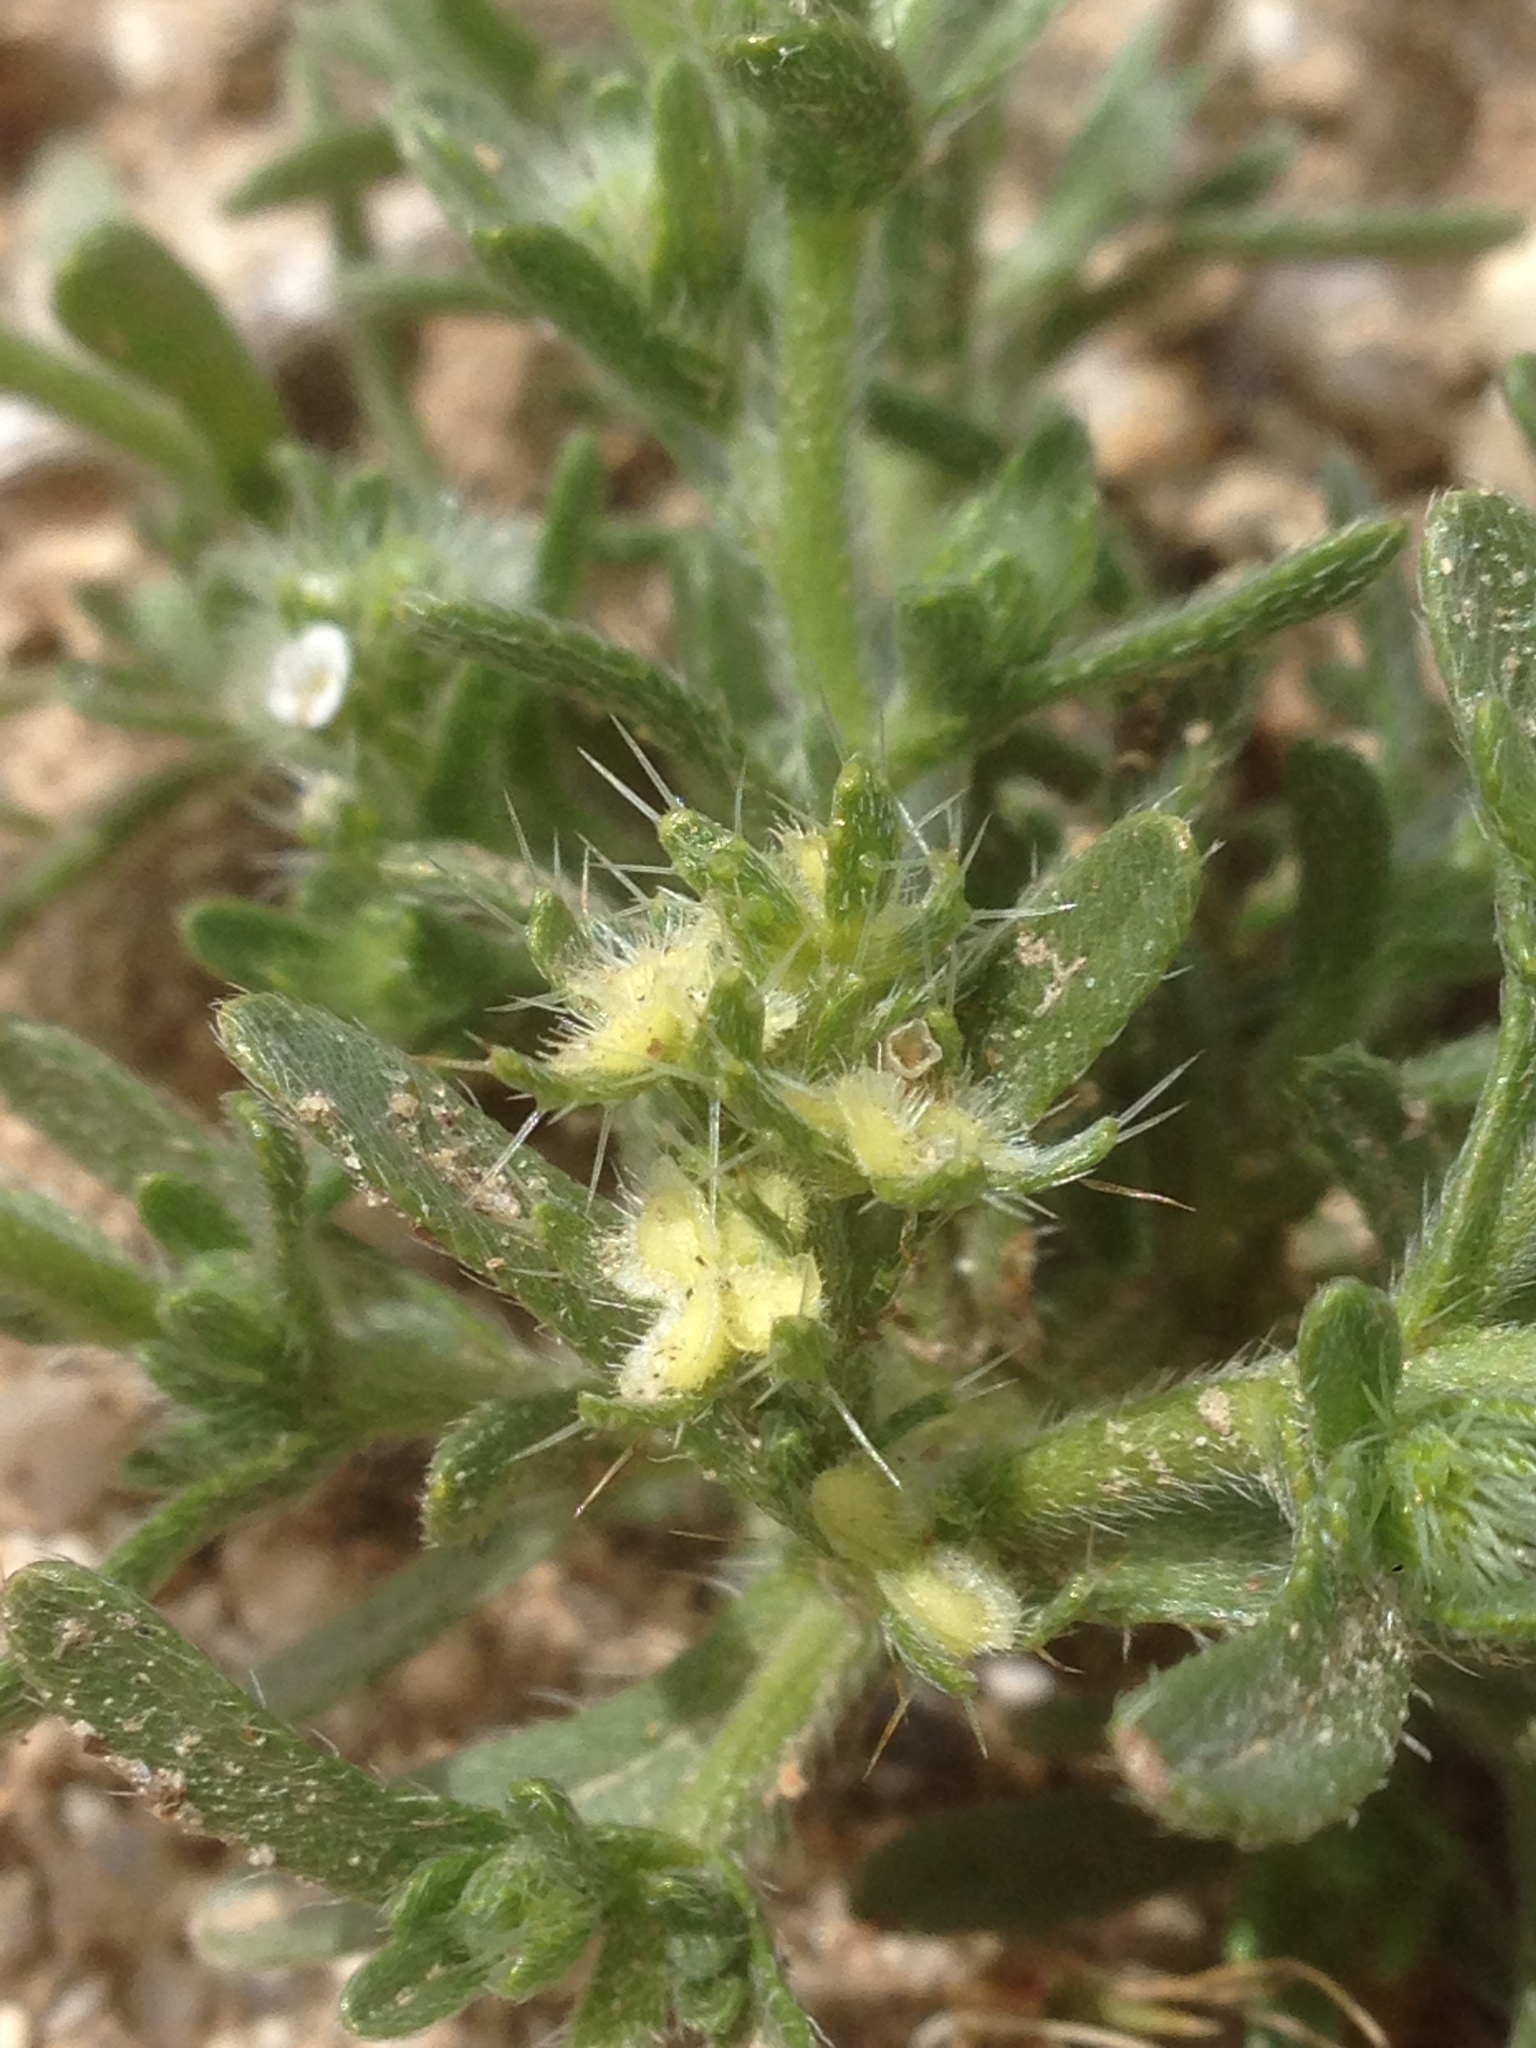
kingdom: Plantae
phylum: Tracheophyta
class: Magnoliopsida
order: Boraginales
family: Boraginaceae
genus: Pectocarya
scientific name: Pectocarya setosa
